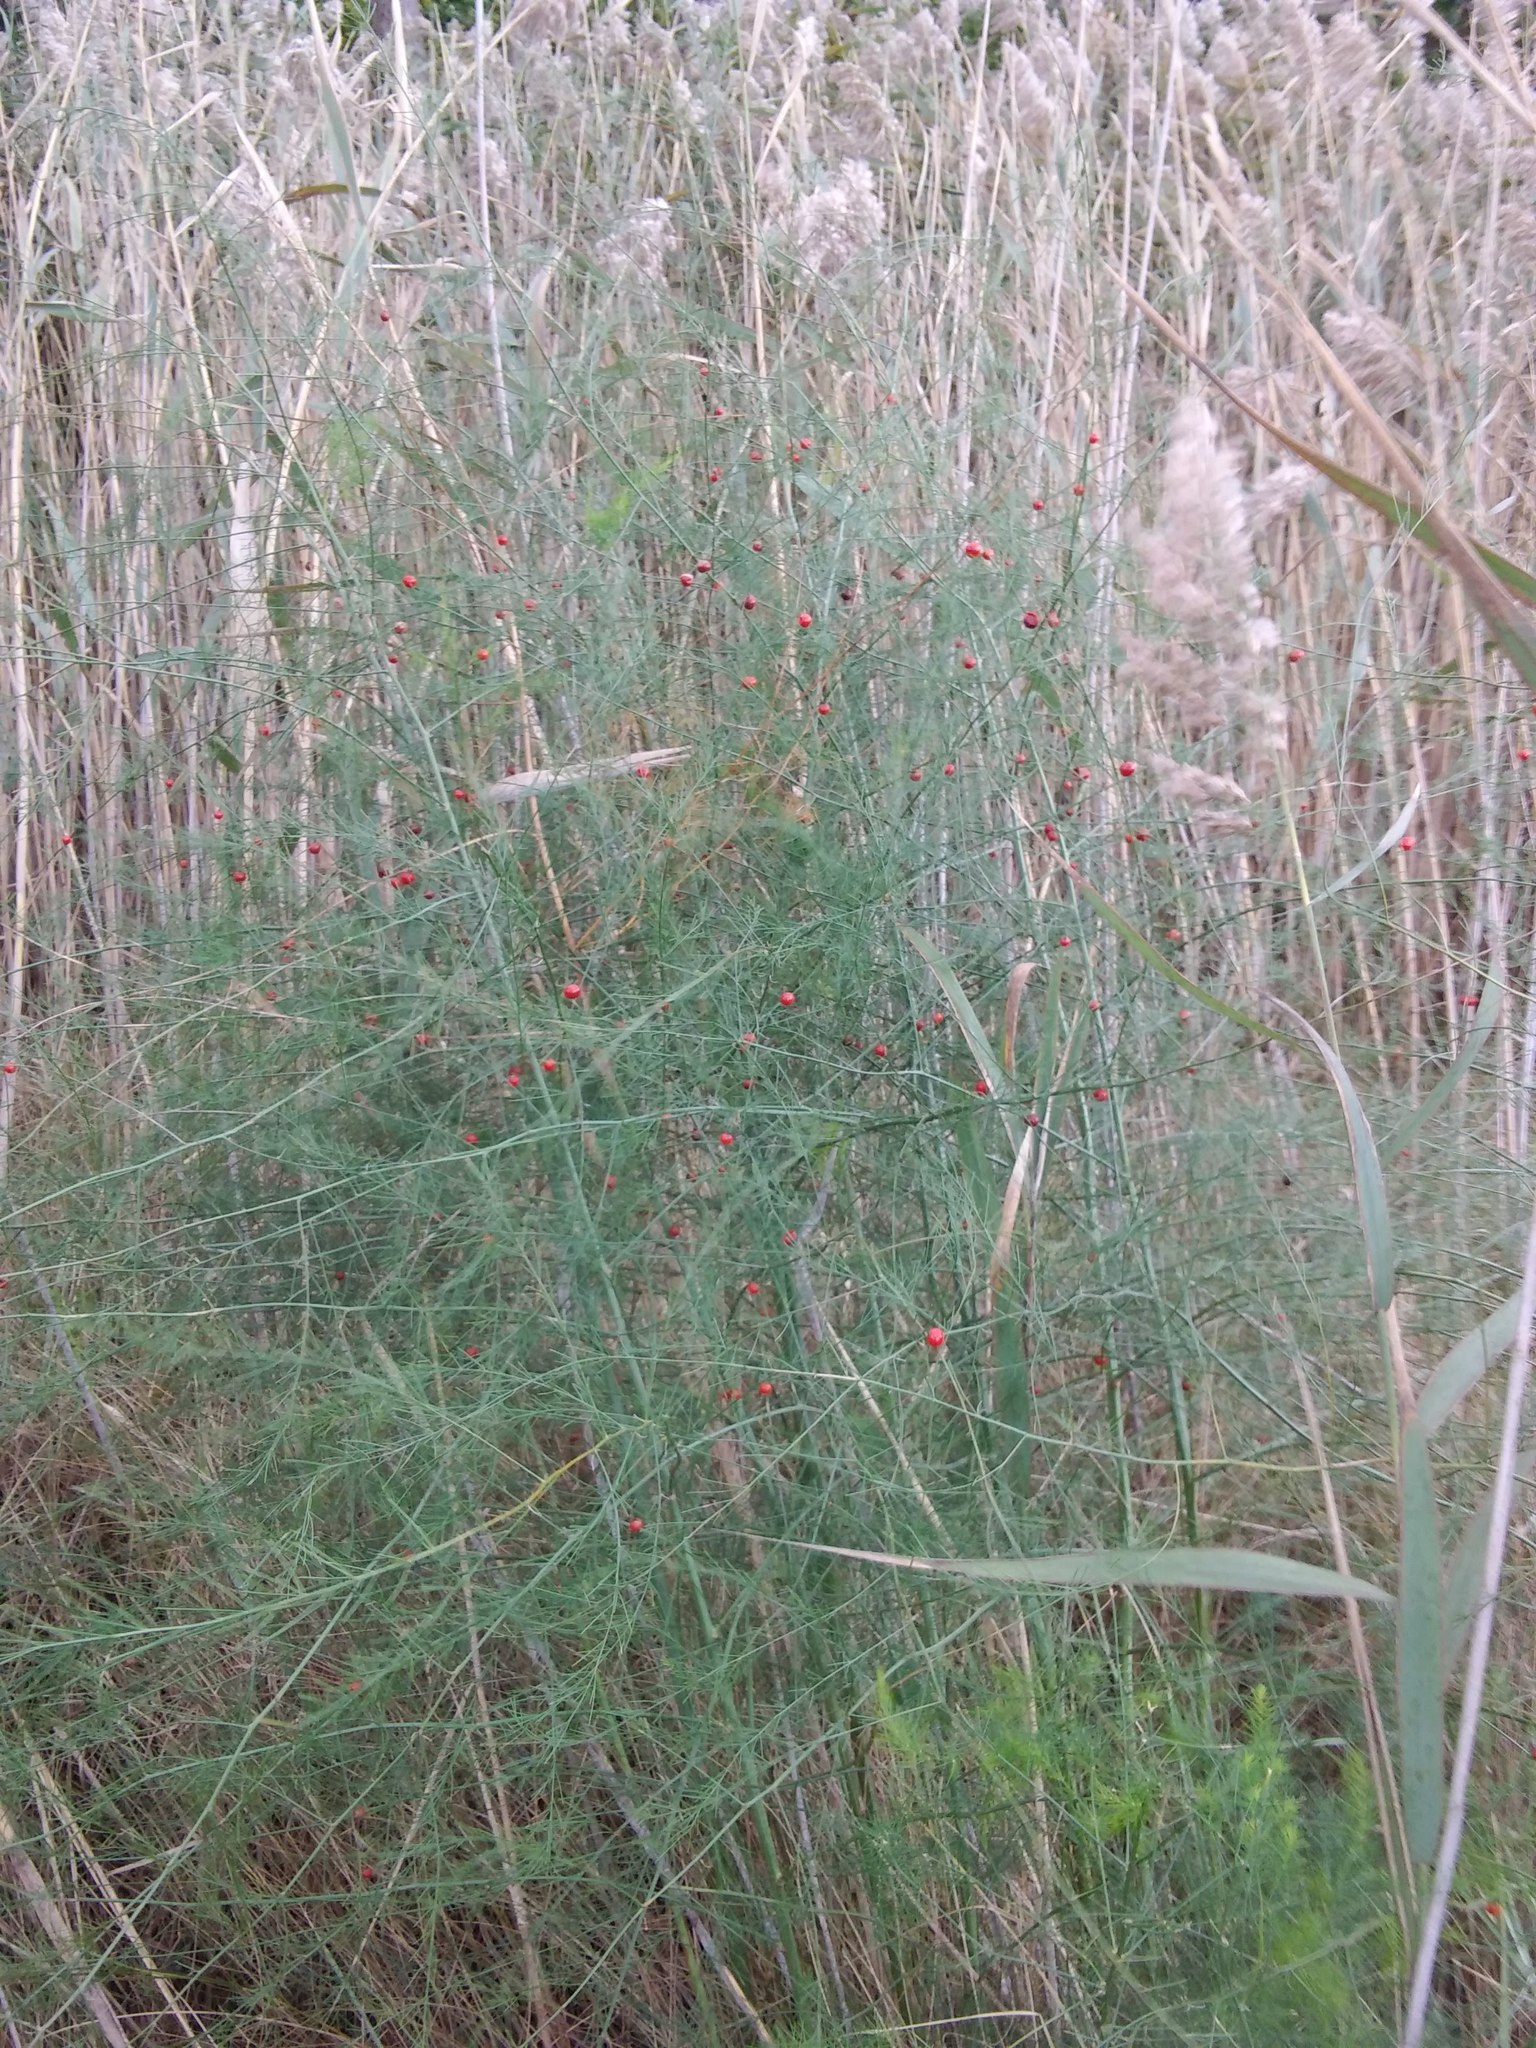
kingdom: Plantae
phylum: Tracheophyta
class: Liliopsida
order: Asparagales
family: Asparagaceae
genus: Asparagus
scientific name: Asparagus officinalis
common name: Garden asparagus
